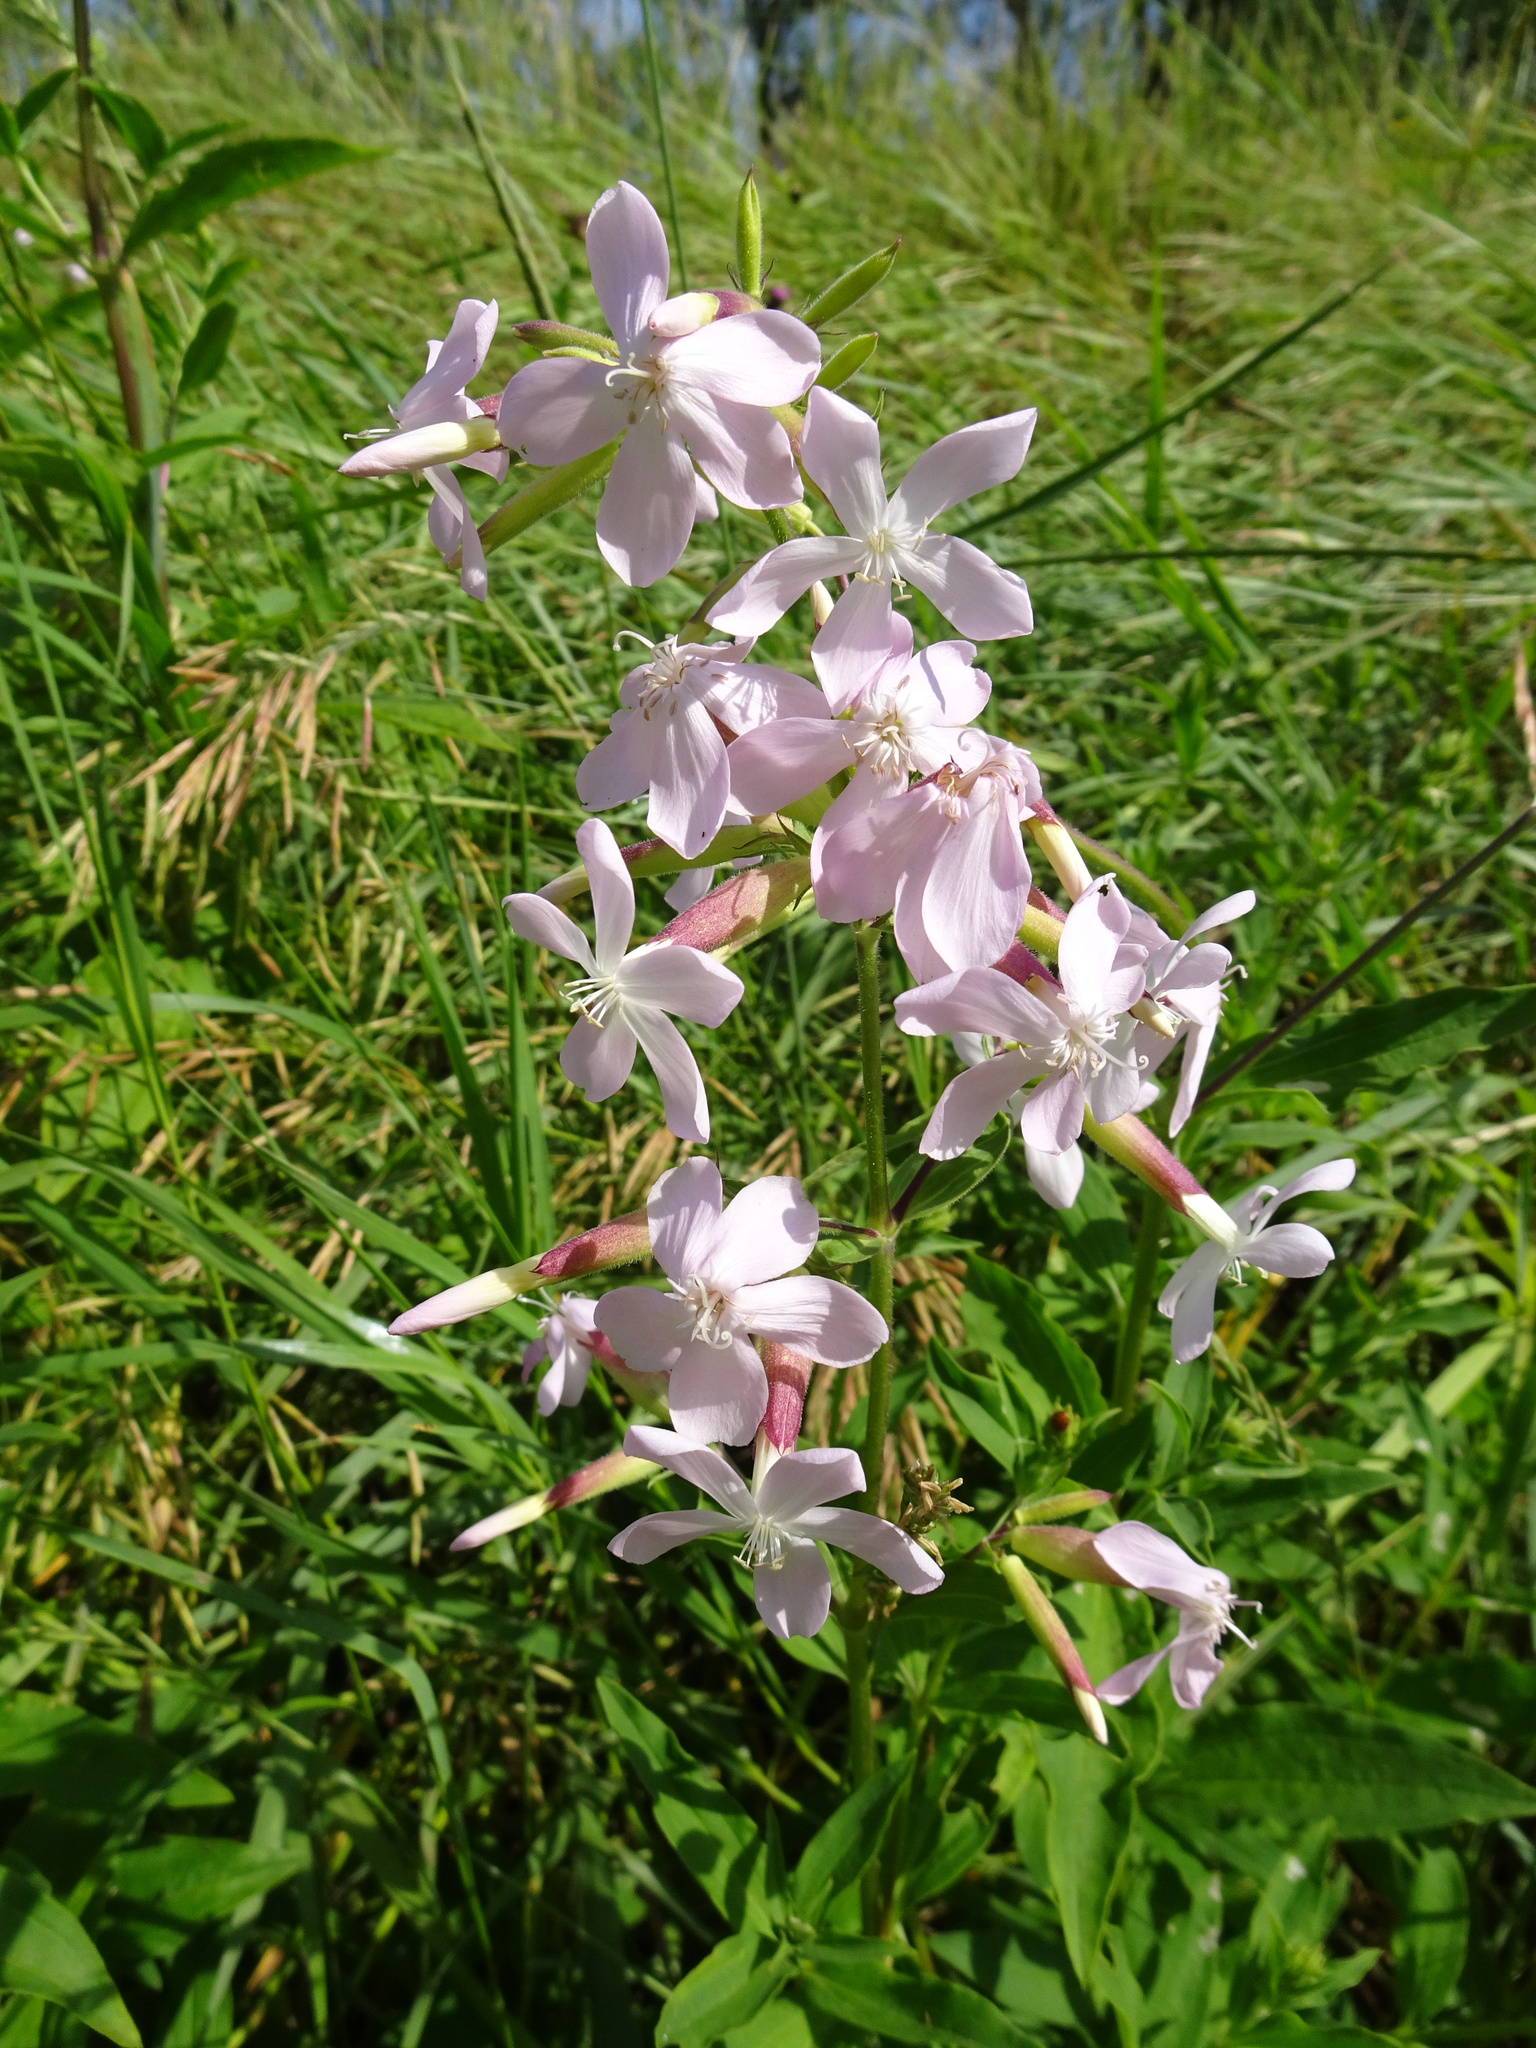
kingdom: Plantae
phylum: Tracheophyta
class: Magnoliopsida
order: Caryophyllales
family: Caryophyllaceae
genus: Saponaria
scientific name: Saponaria officinalis
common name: Soapwort
